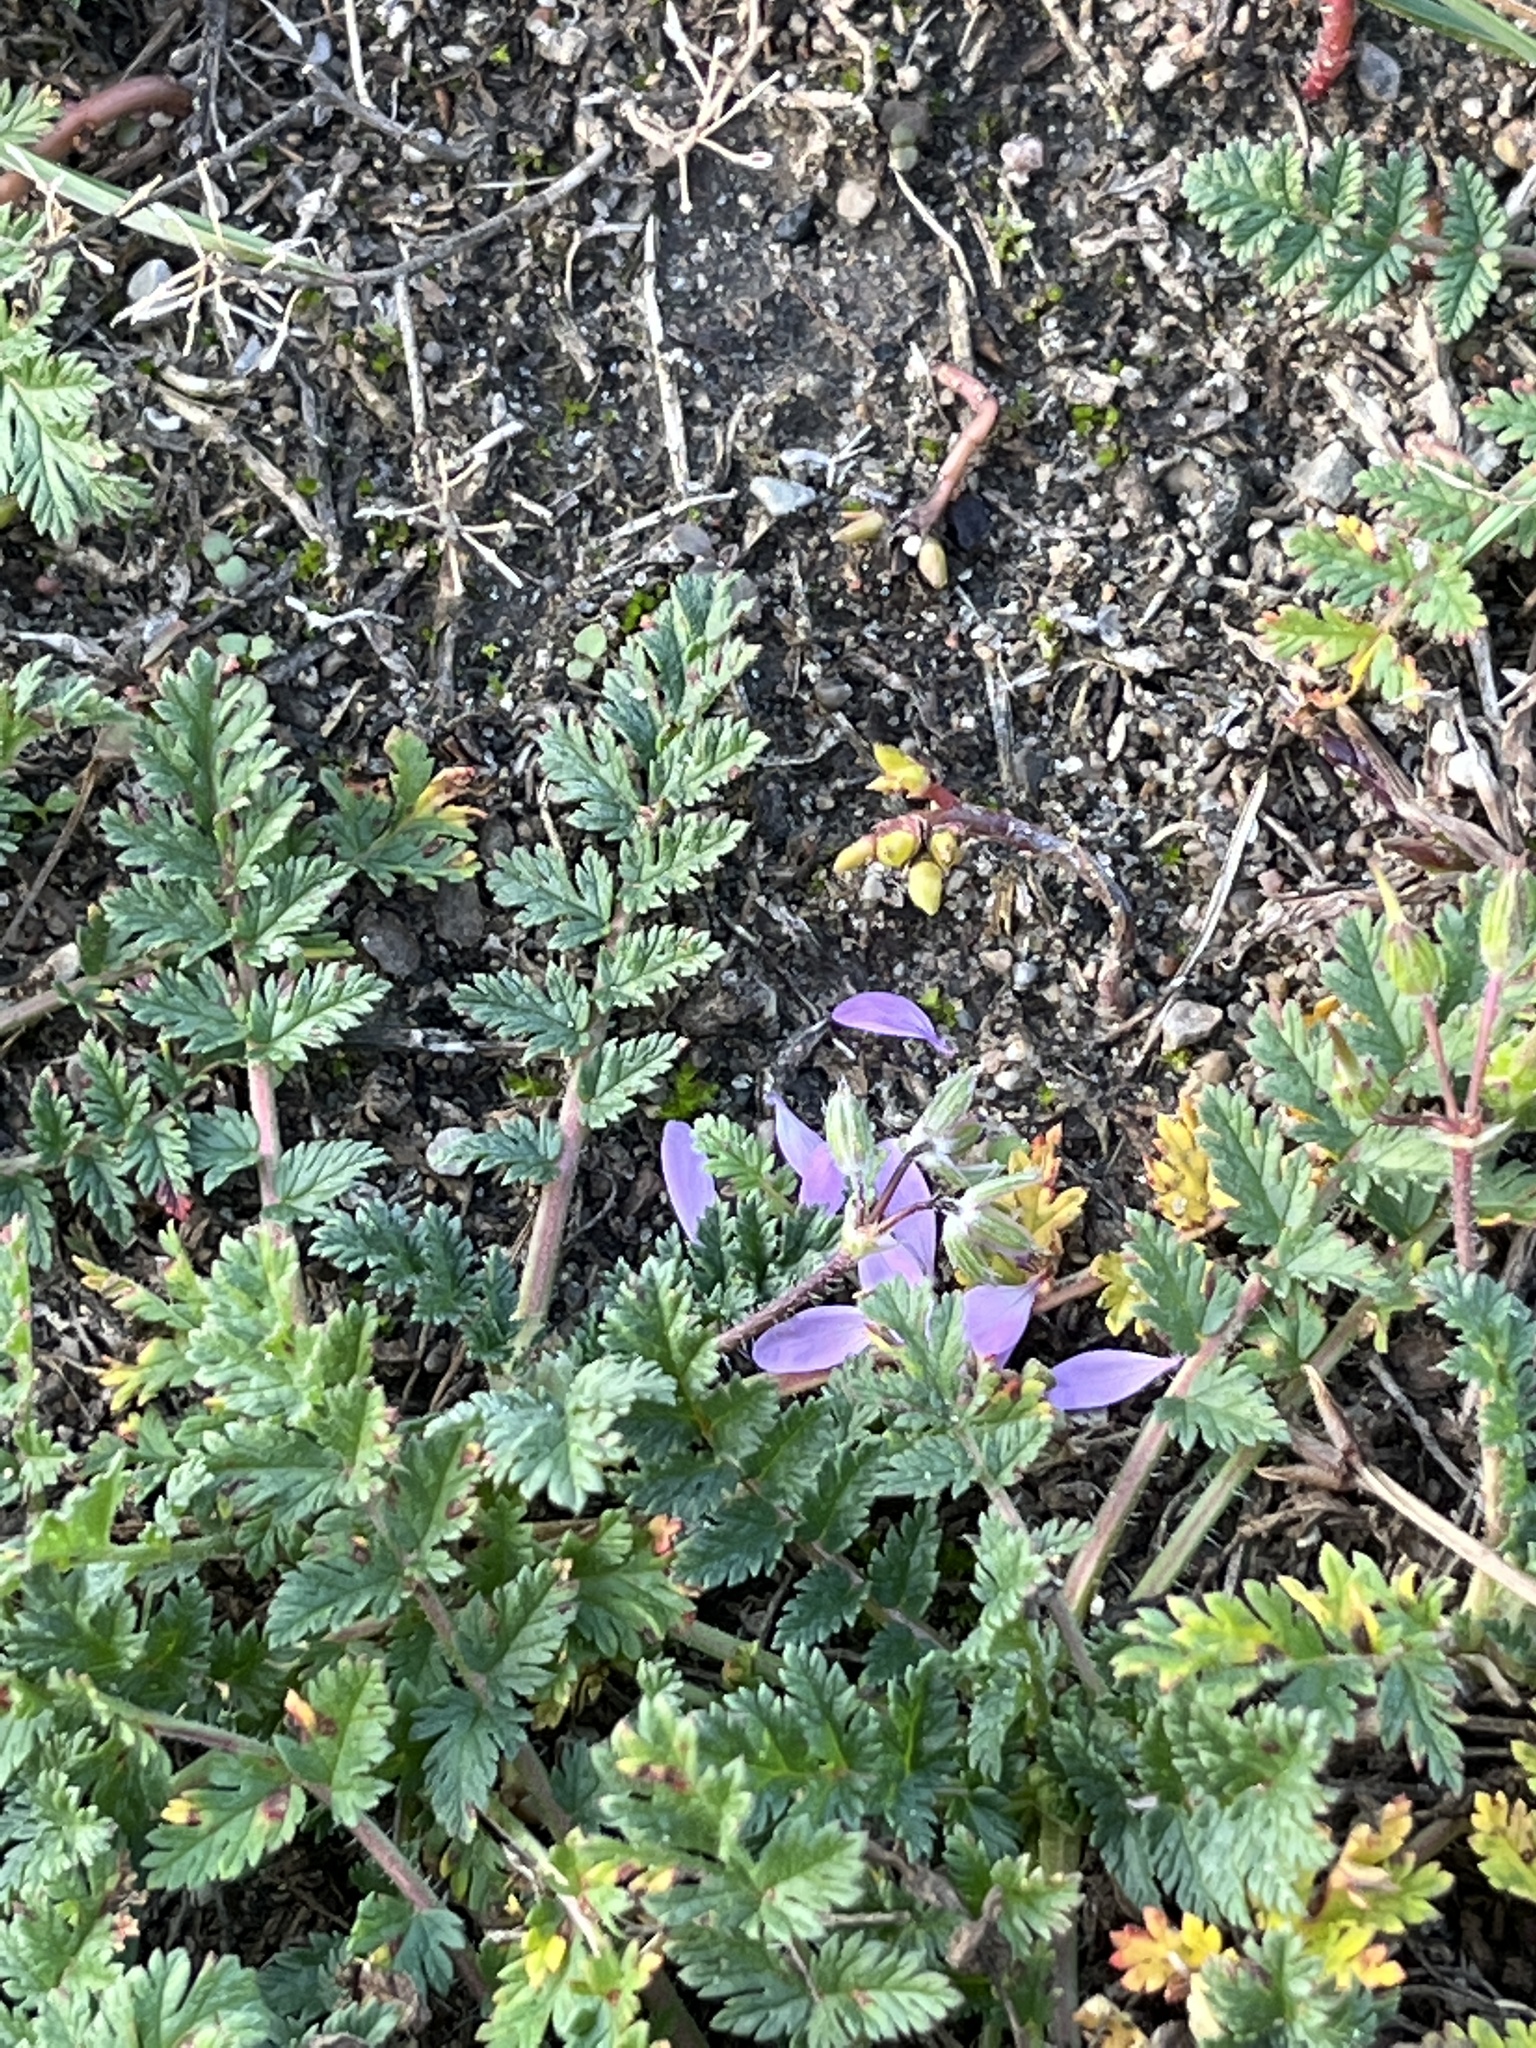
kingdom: Plantae
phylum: Tracheophyta
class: Magnoliopsida
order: Geraniales
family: Geraniaceae
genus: Erodium
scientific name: Erodium cicutarium
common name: Common stork's-bill
